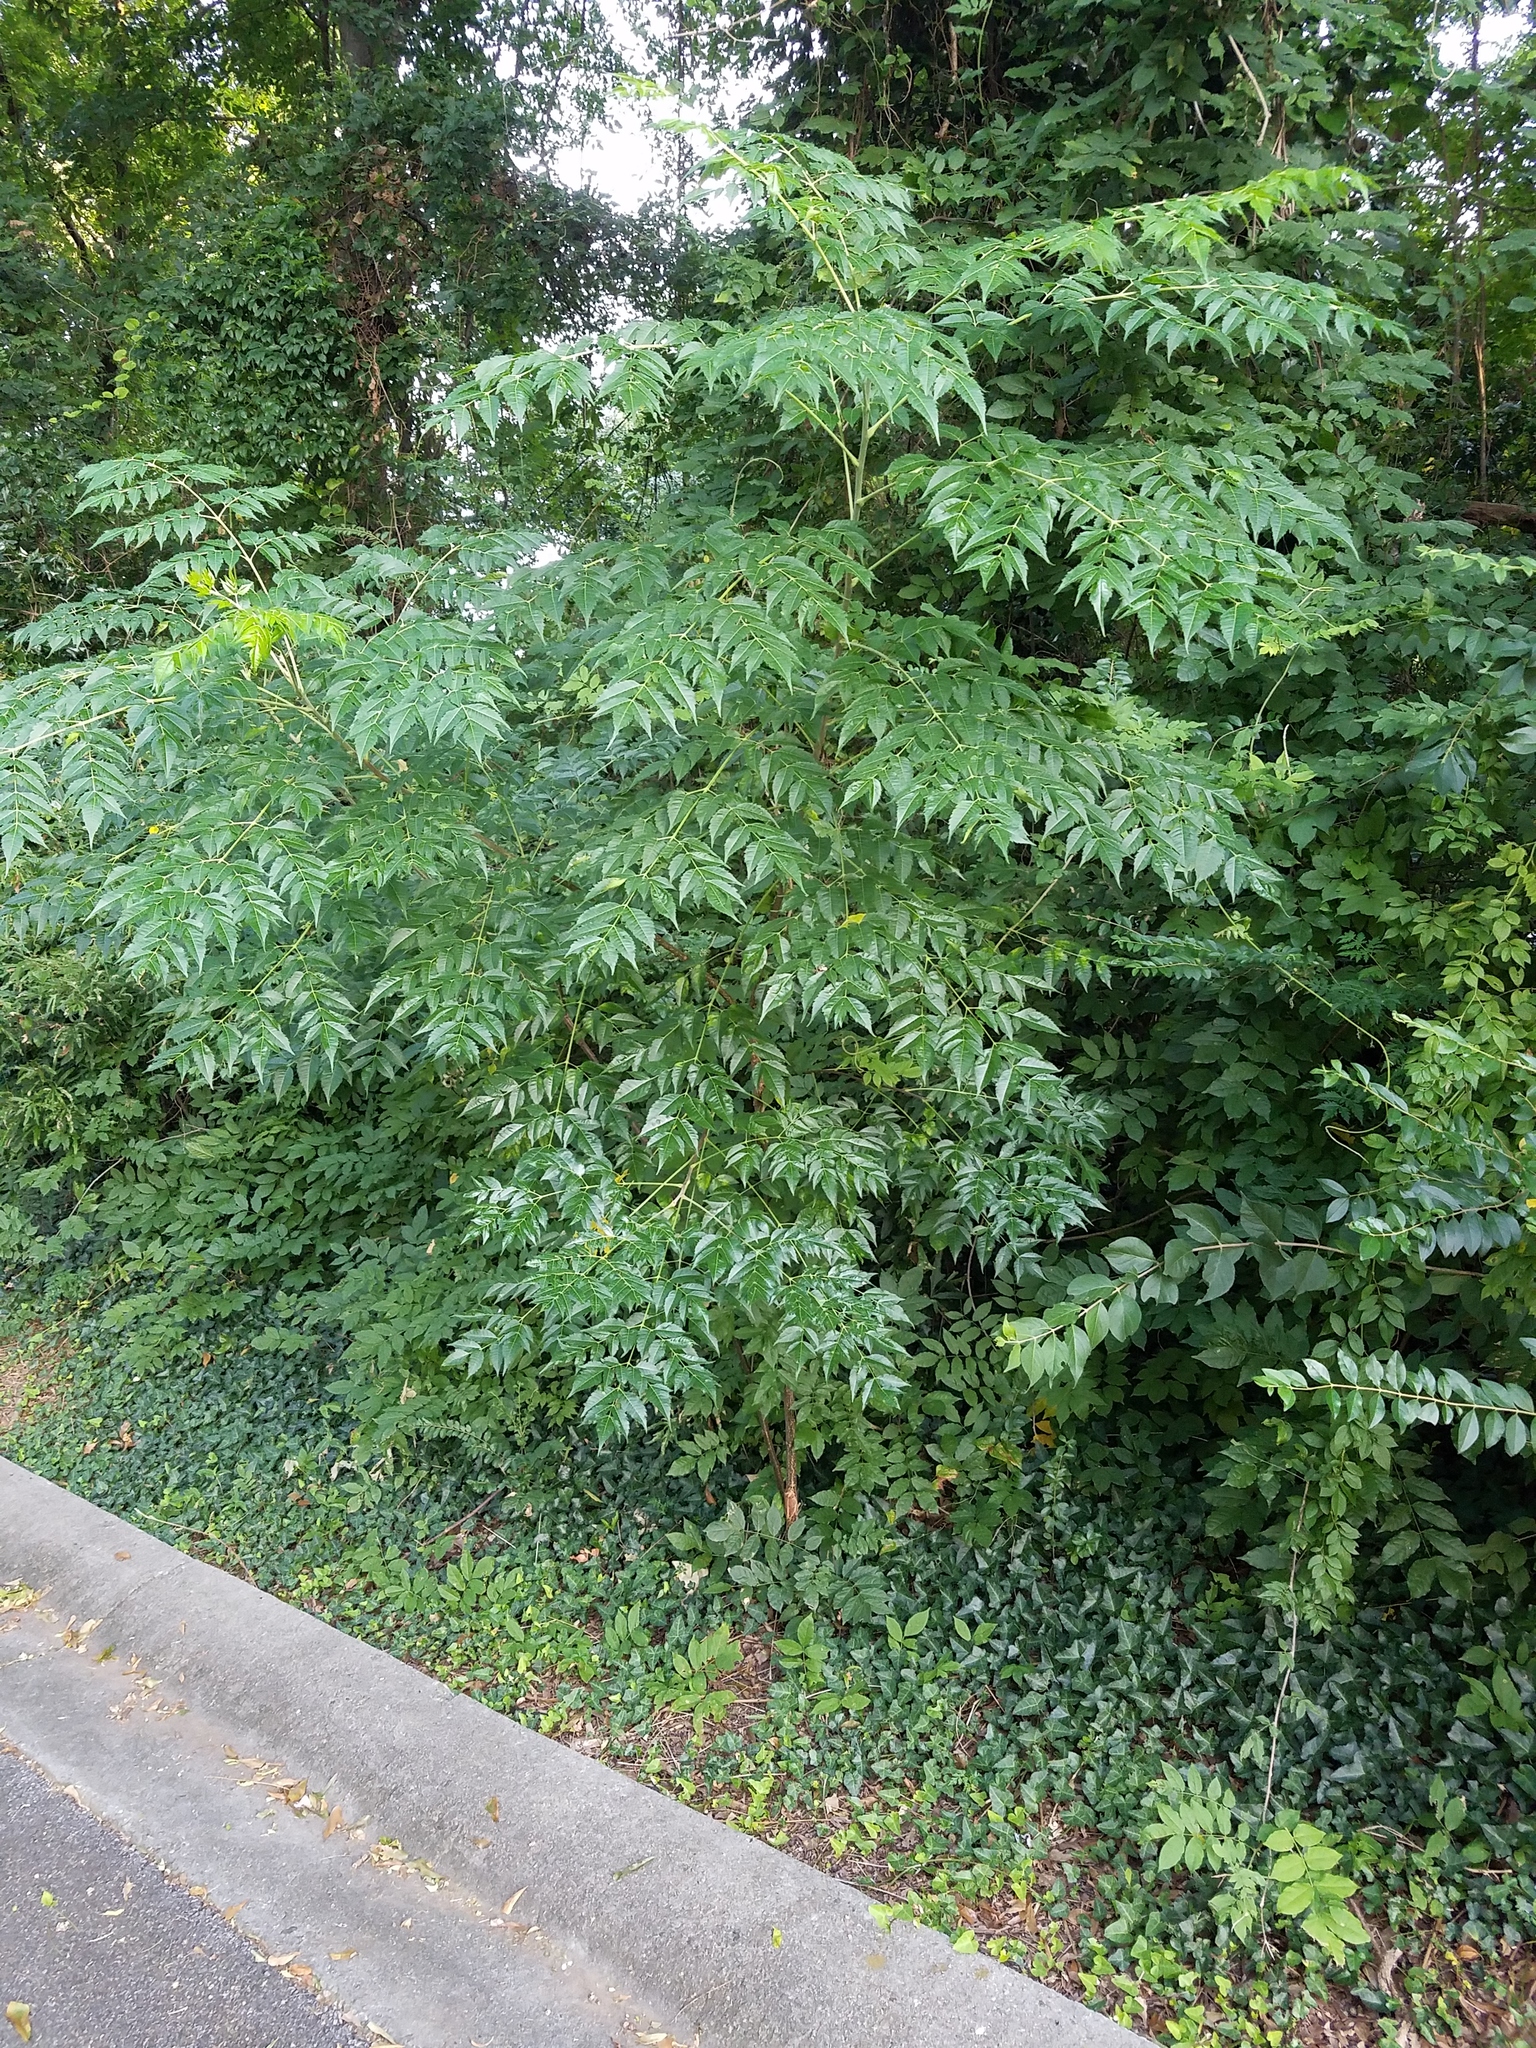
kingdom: Plantae
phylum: Tracheophyta
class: Magnoliopsida
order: Sapindales
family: Meliaceae
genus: Melia
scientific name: Melia azedarach
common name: Chinaberrytree
